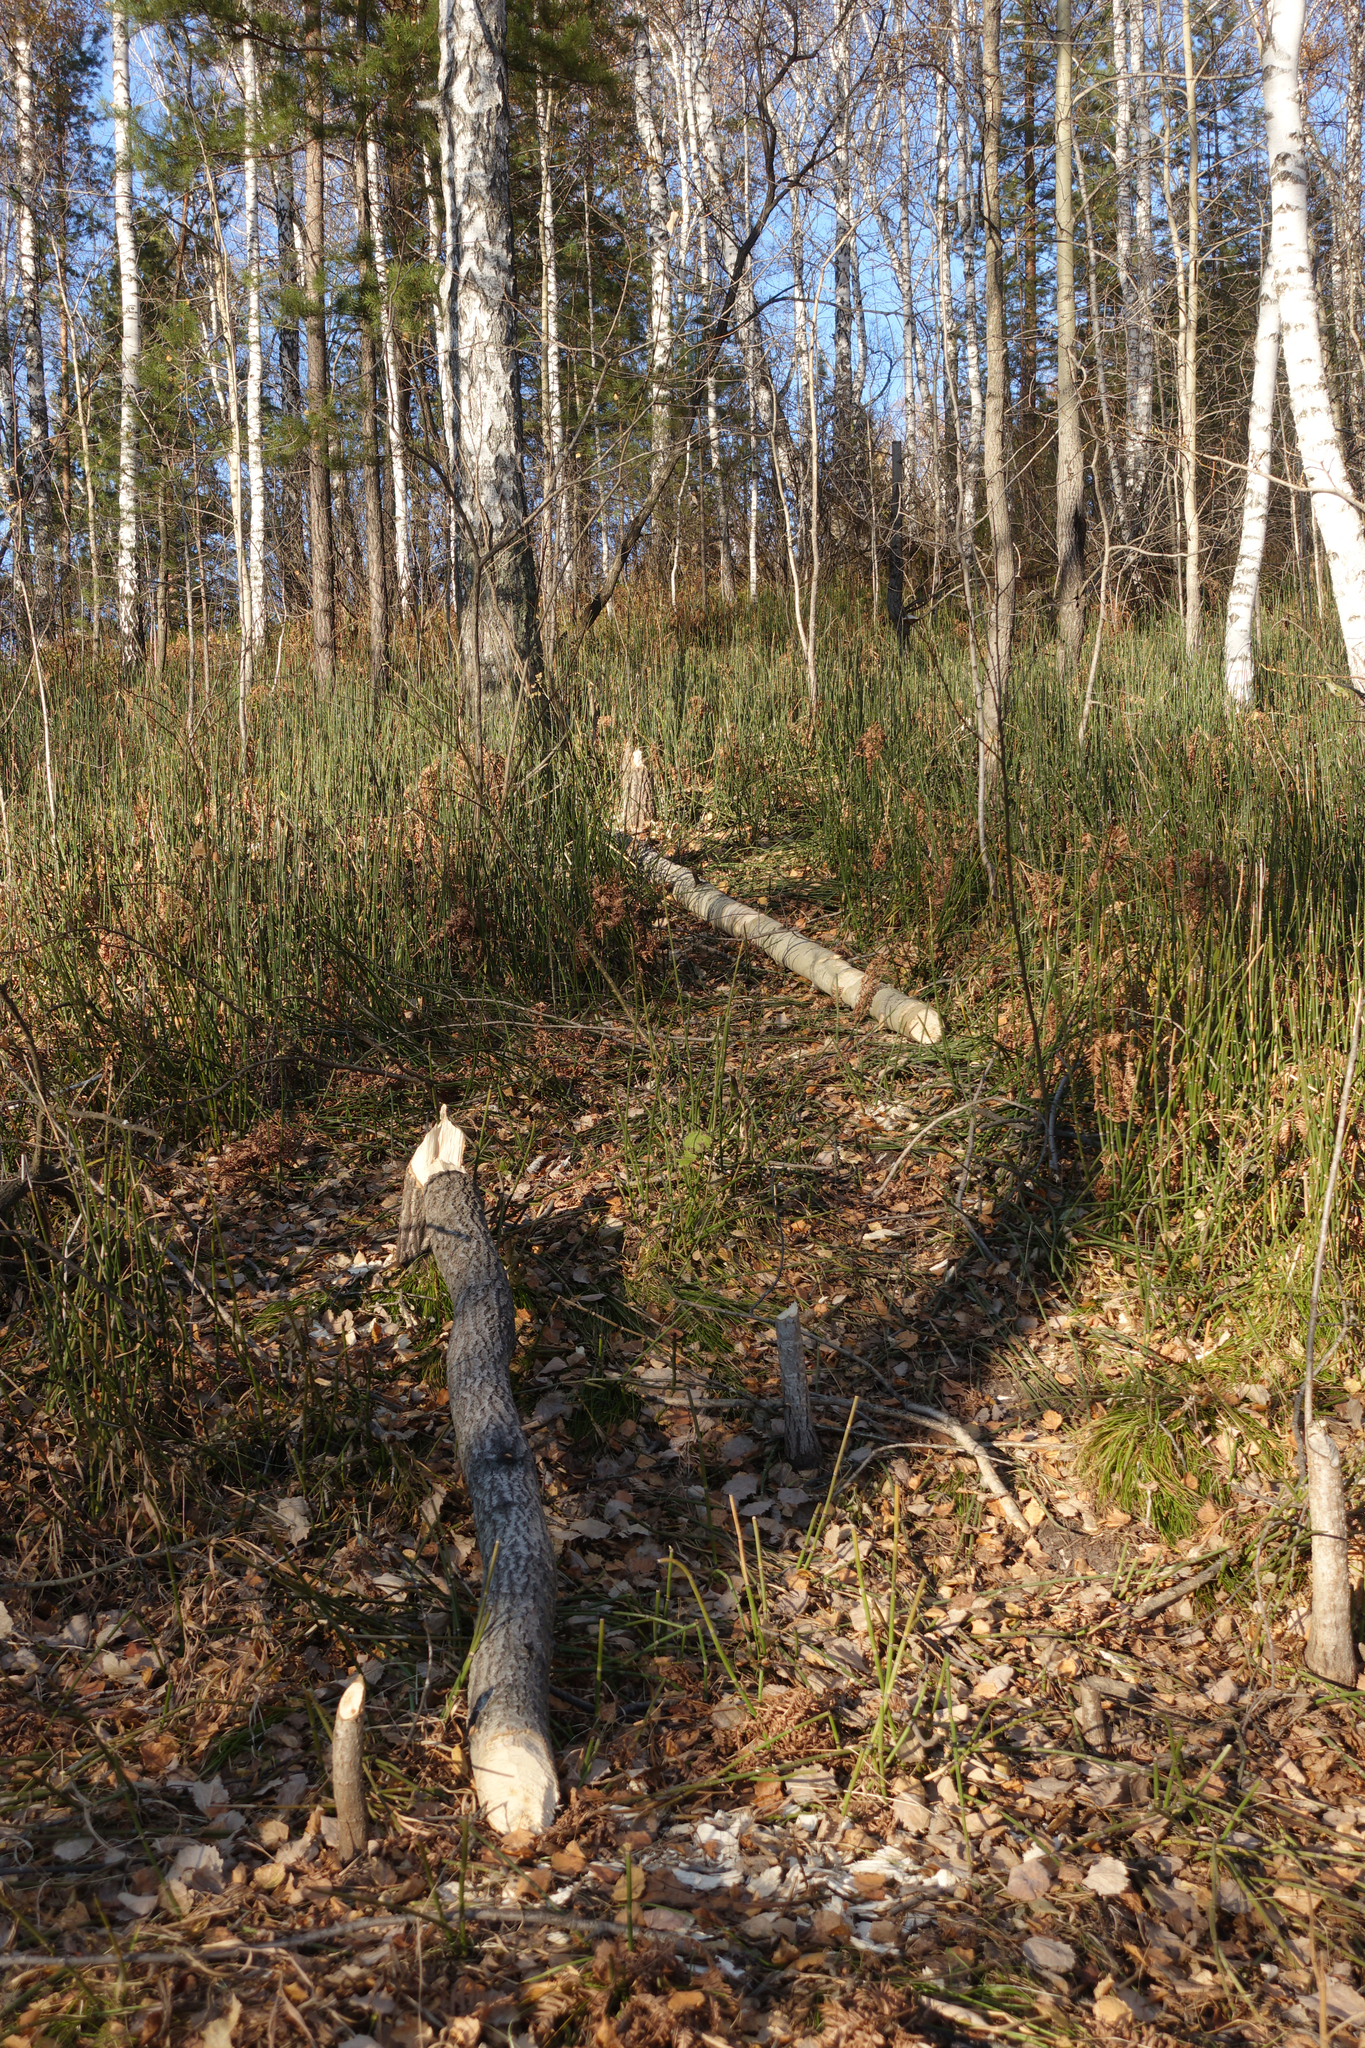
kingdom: Animalia
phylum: Chordata
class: Mammalia
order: Rodentia
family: Castoridae
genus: Castor
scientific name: Castor fiber
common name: Eurasian beaver
